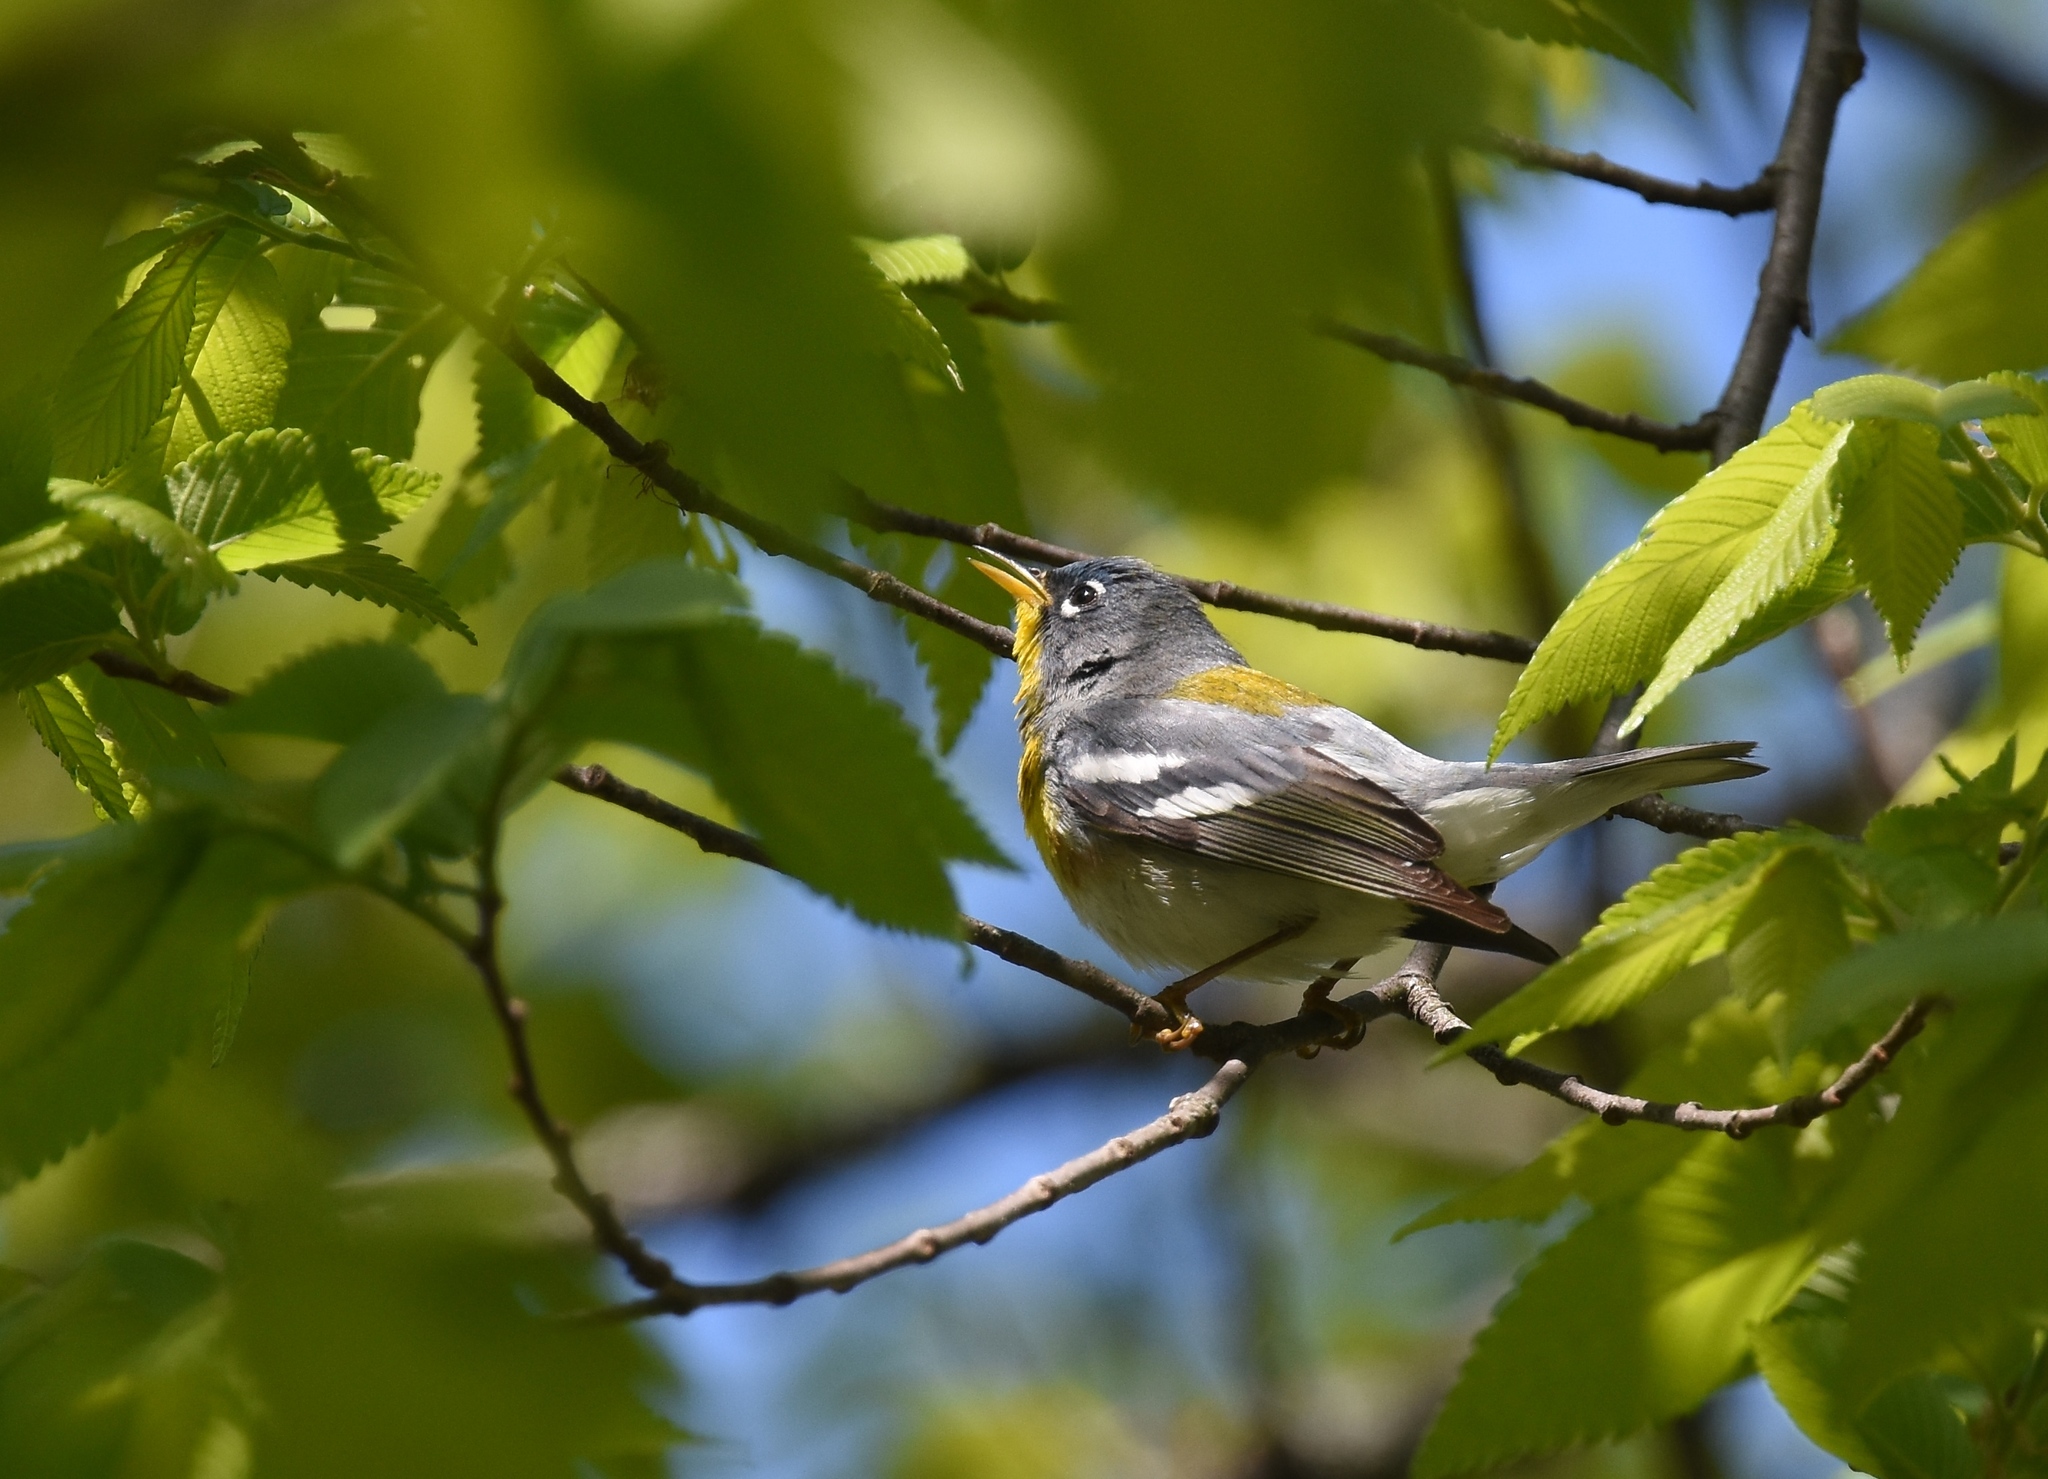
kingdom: Animalia
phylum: Chordata
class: Aves
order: Passeriformes
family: Parulidae
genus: Setophaga
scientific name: Setophaga americana
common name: Northern parula
